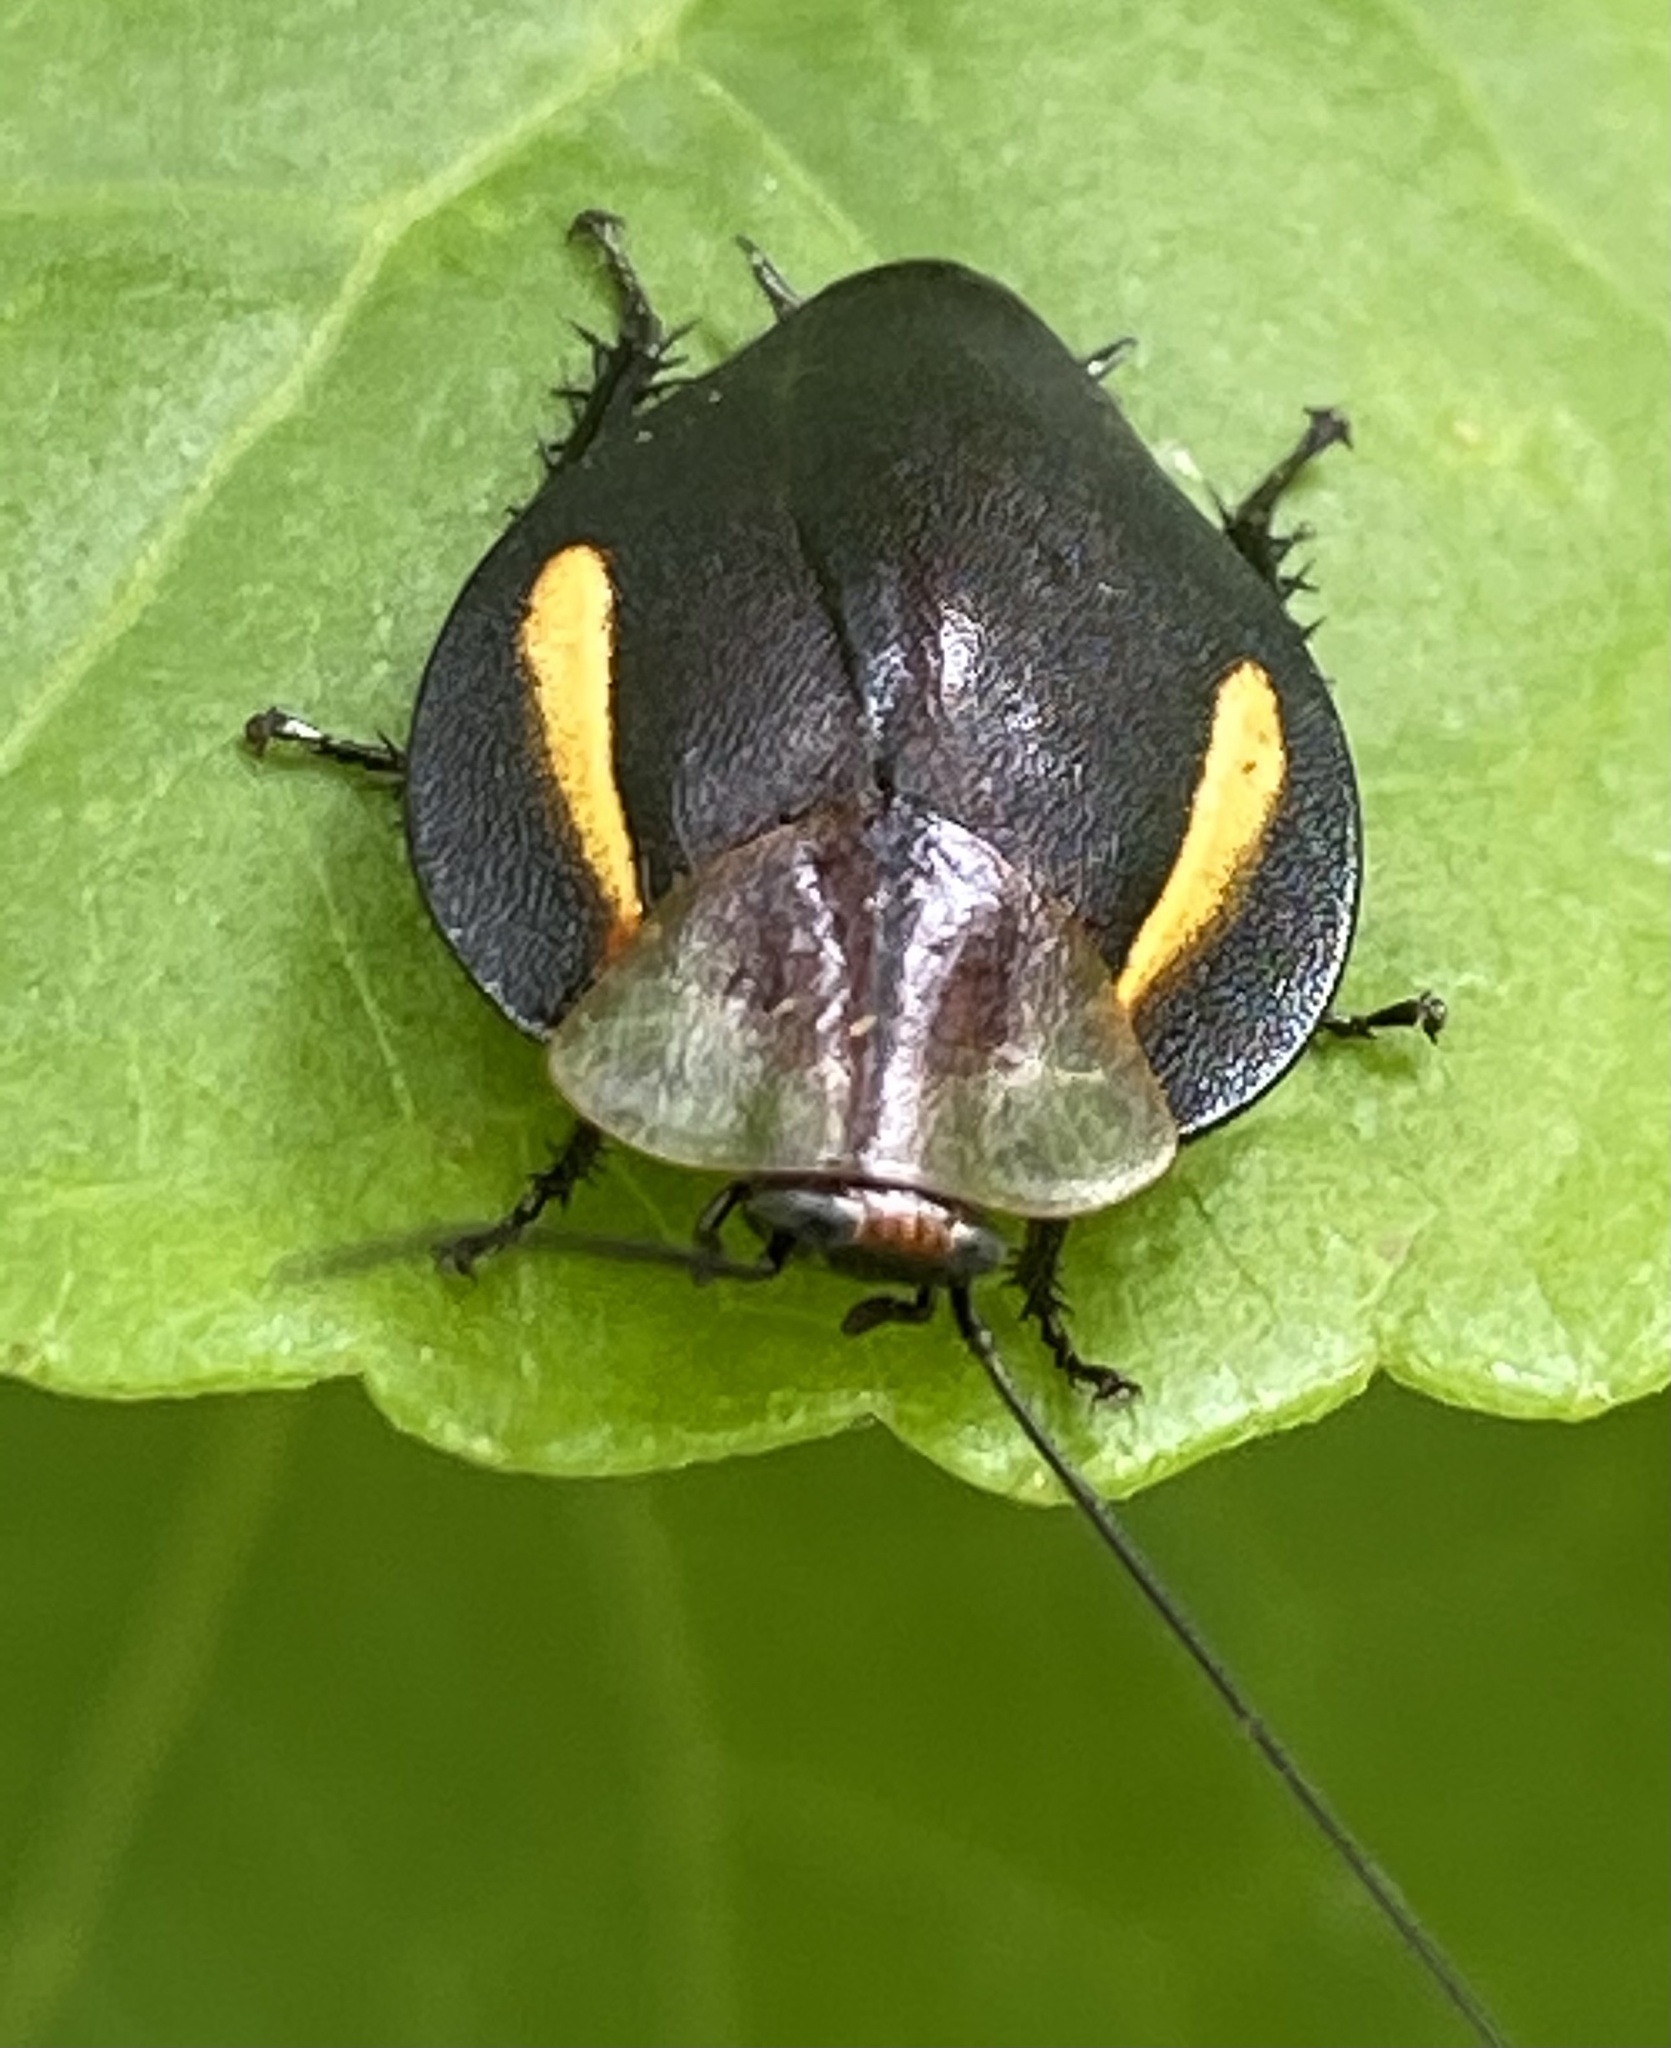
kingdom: Animalia
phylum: Arthropoda
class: Insecta
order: Blattodea
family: Blaberidae
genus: Phoraspis
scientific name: Phoraspis leucogramma
